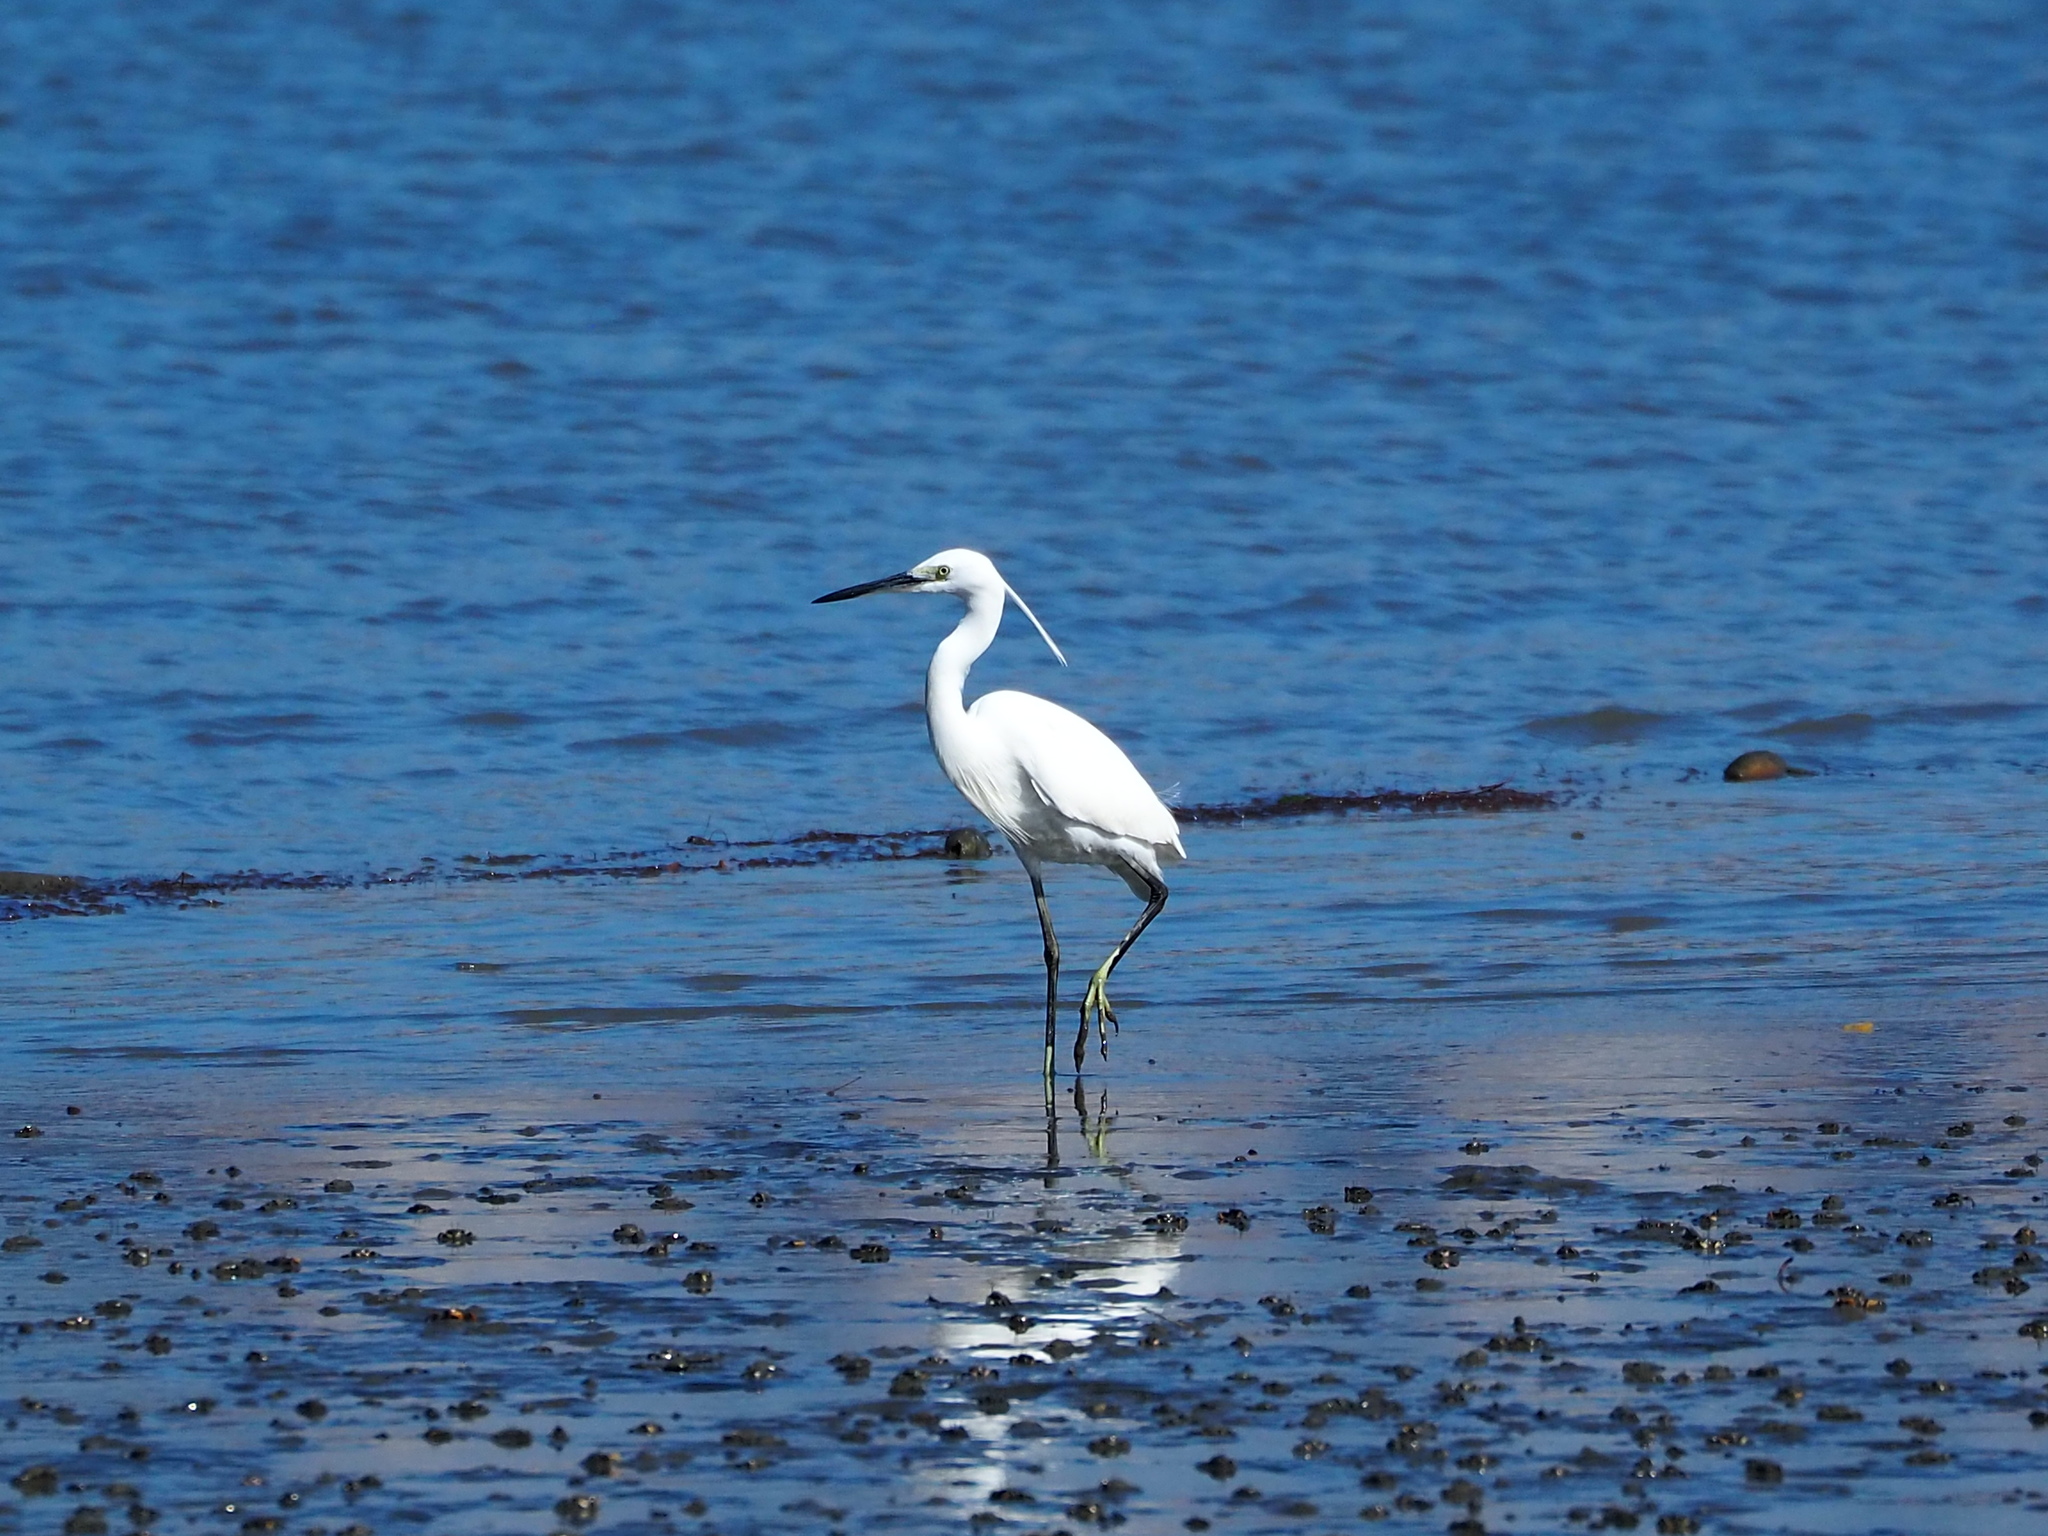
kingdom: Animalia
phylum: Chordata
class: Aves
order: Pelecaniformes
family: Ardeidae
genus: Egretta
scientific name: Egretta garzetta
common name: Little egret
